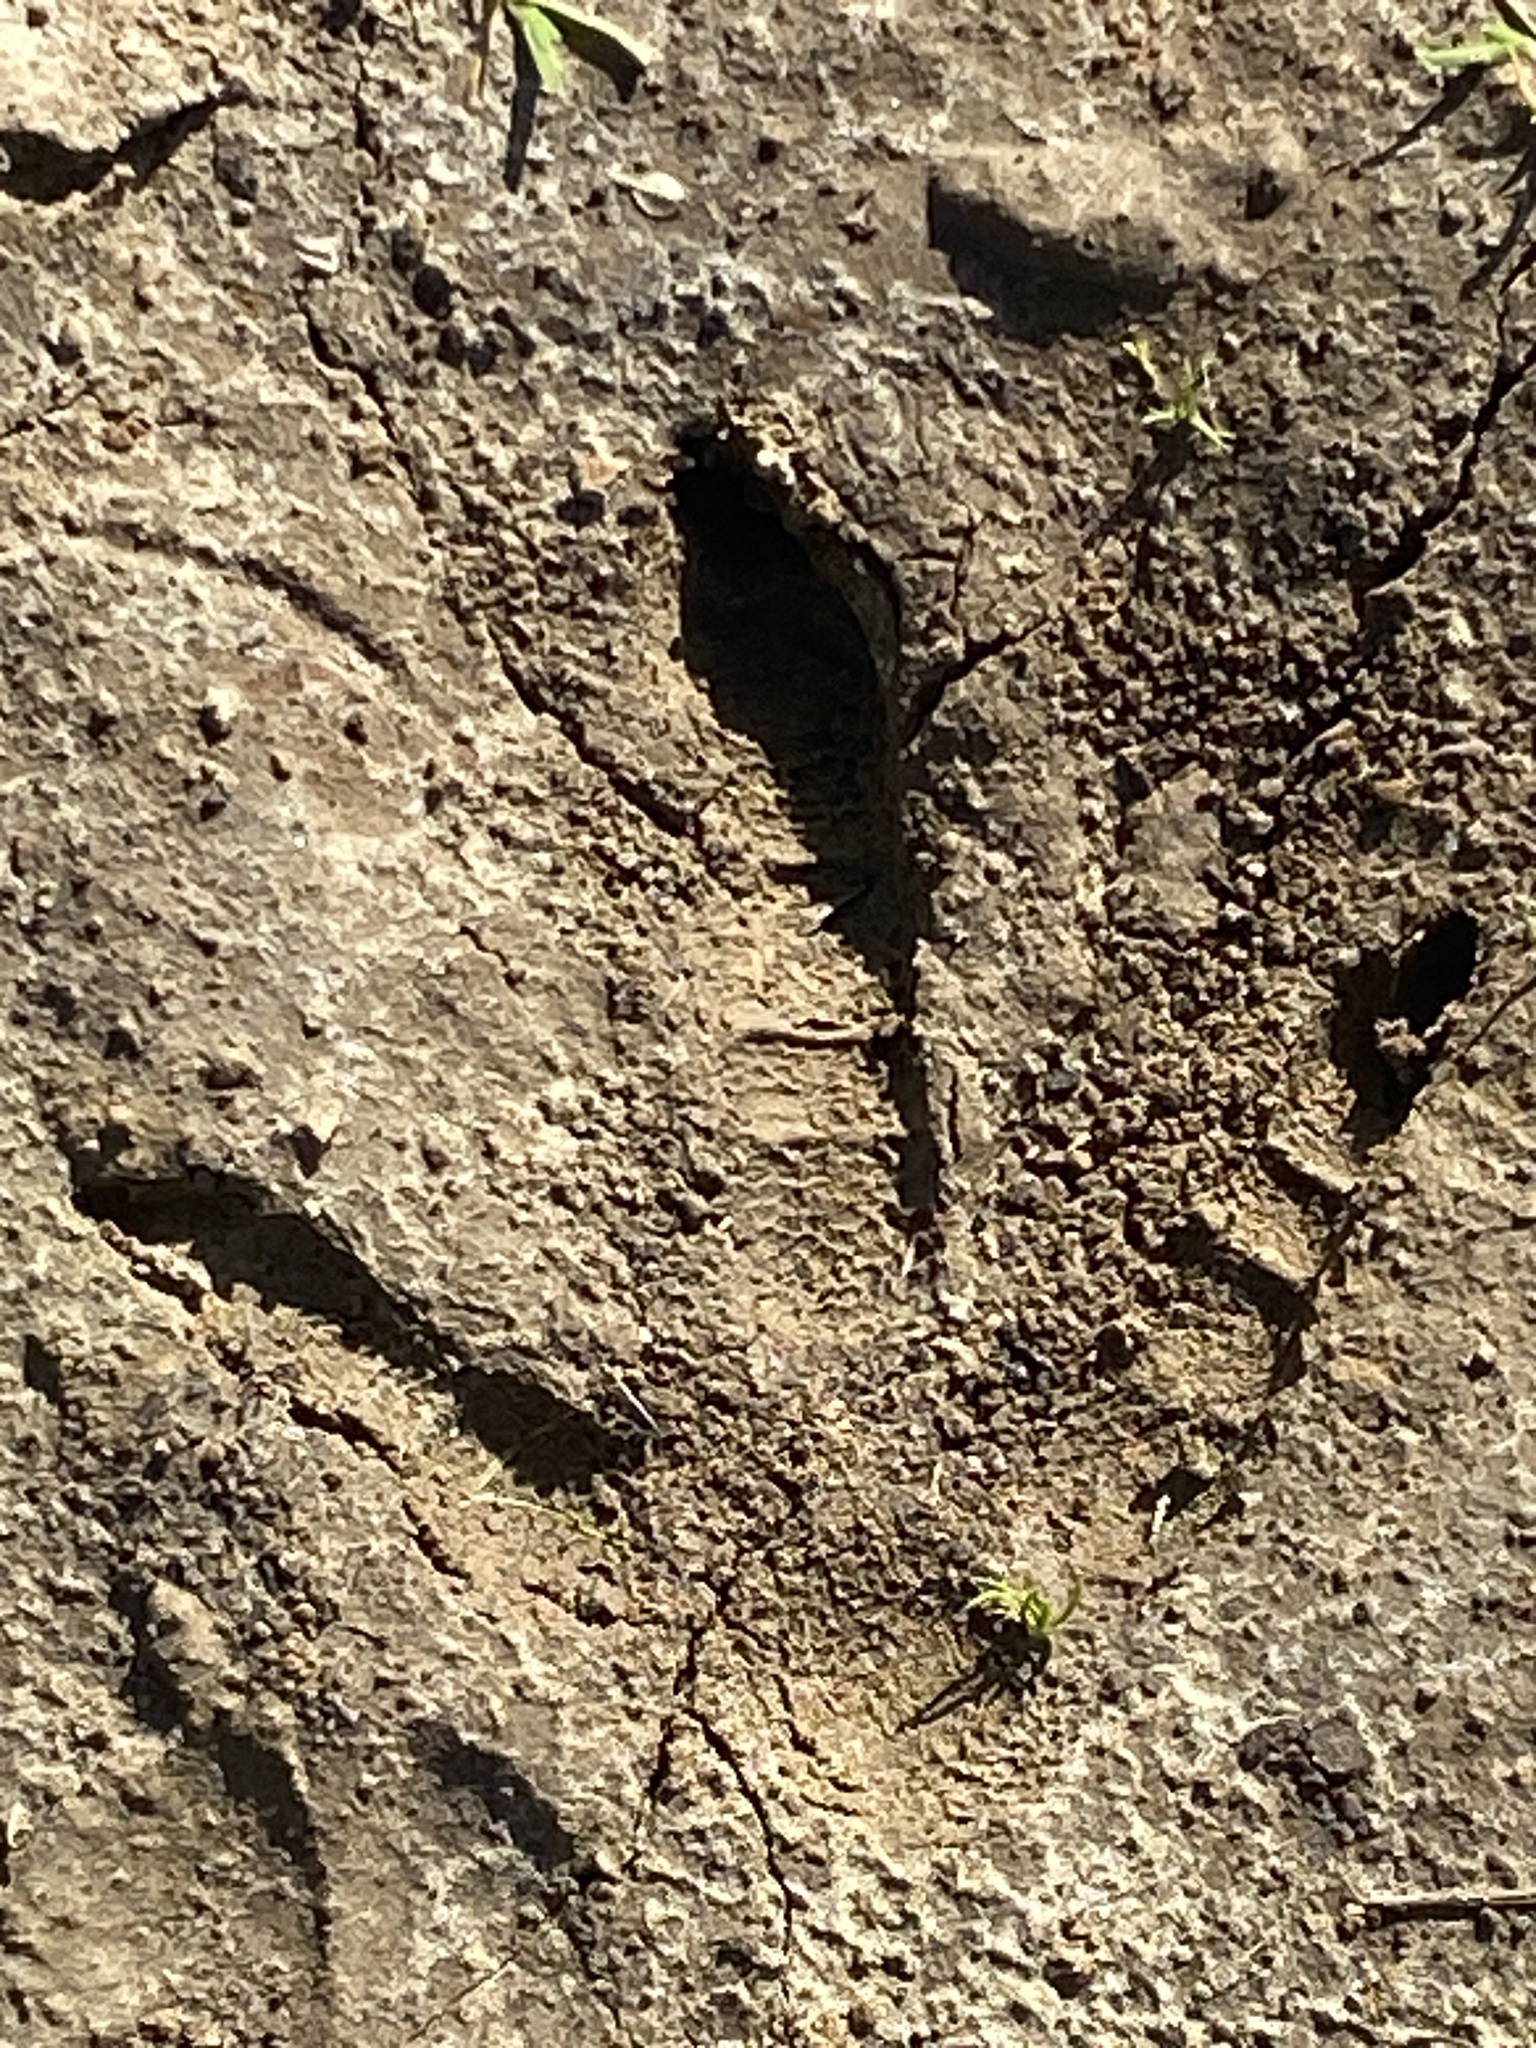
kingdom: Animalia
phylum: Chordata
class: Aves
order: Galliformes
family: Phasianidae
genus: Meleagris
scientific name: Meleagris gallopavo
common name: Wild turkey
